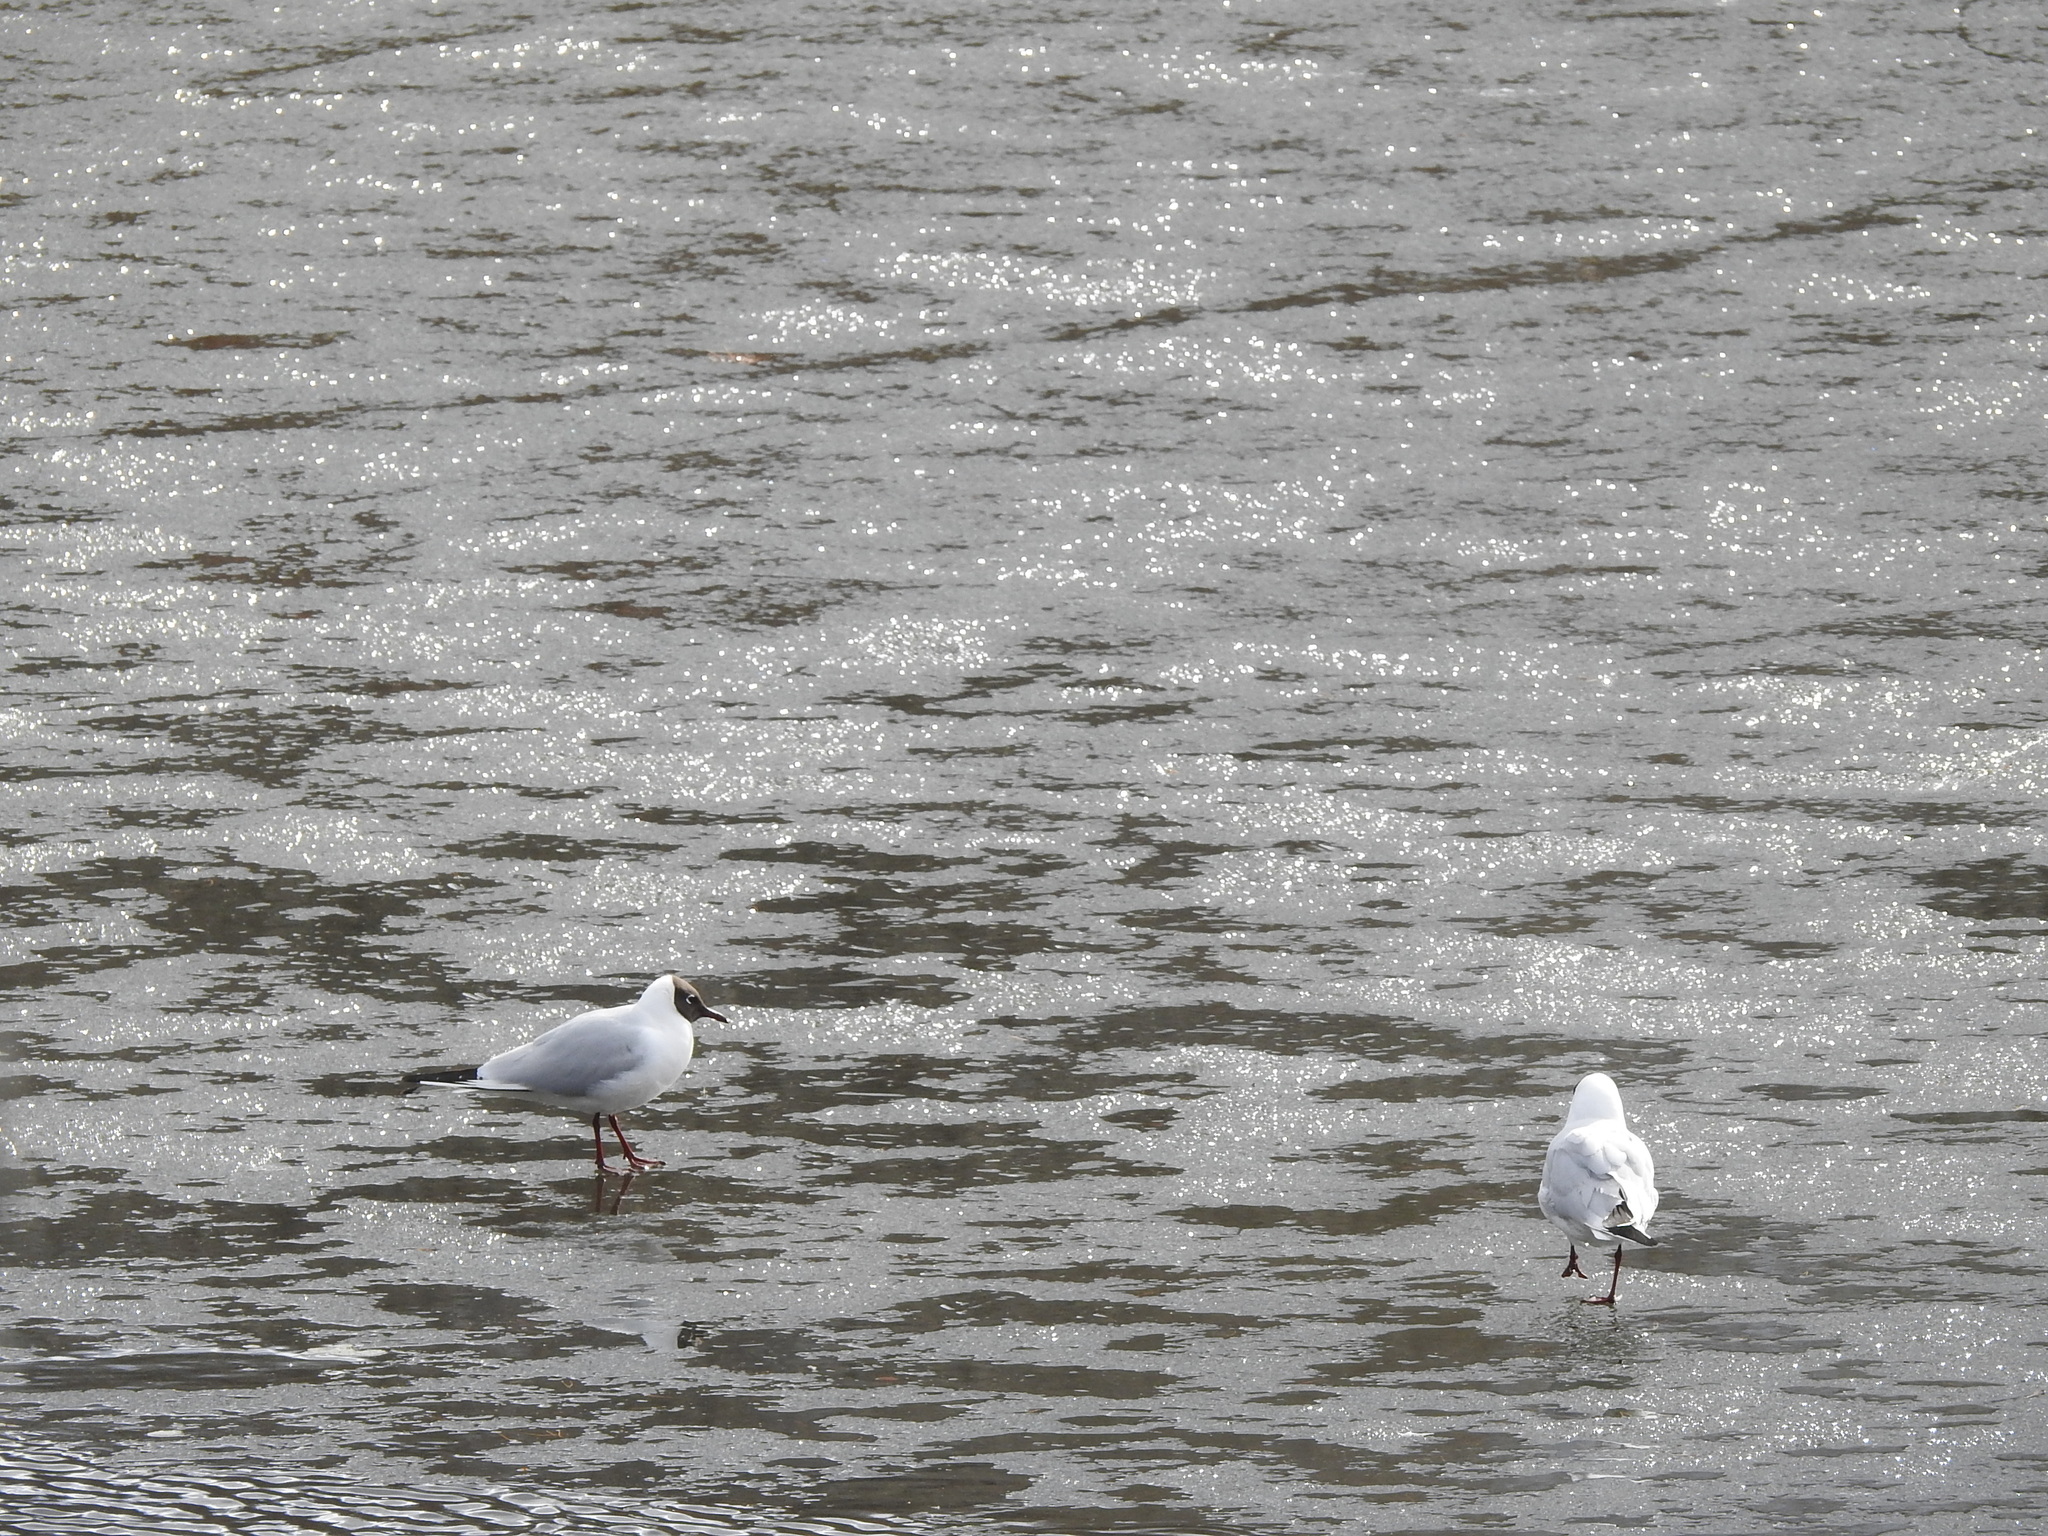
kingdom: Animalia
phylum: Chordata
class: Aves
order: Charadriiformes
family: Laridae
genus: Chroicocephalus
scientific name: Chroicocephalus ridibundus
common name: Black-headed gull
